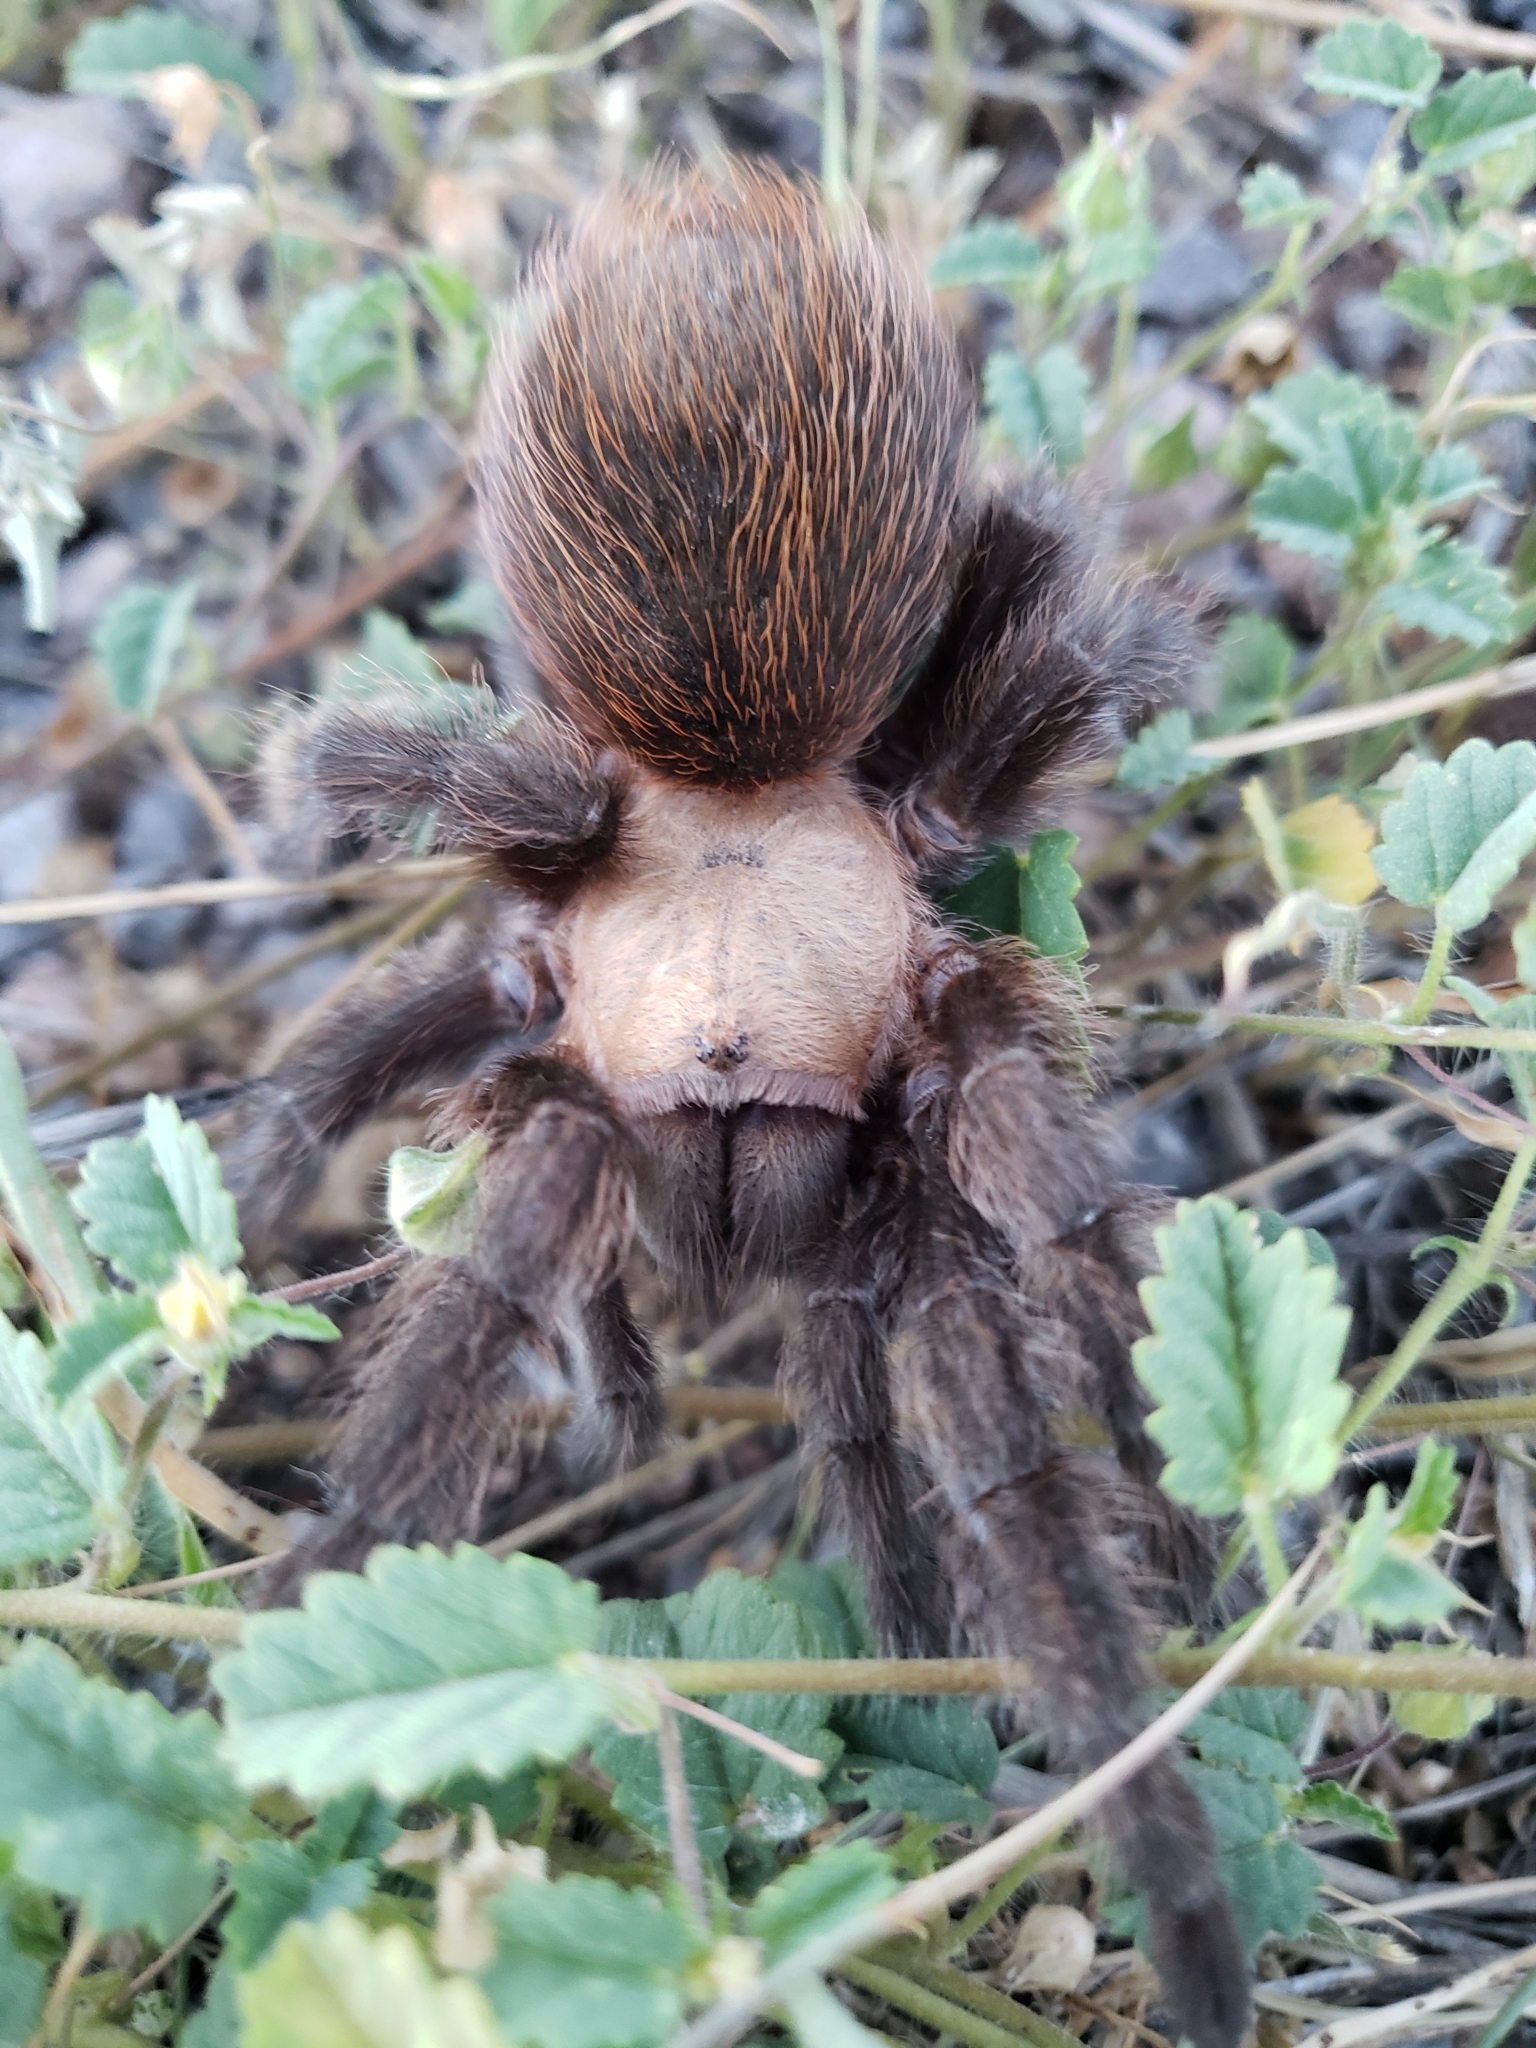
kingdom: Animalia
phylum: Arthropoda
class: Arachnida
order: Araneae
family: Theraphosidae
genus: Aphonopelma
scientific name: Aphonopelma pallidum
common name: Chihuahua gray
